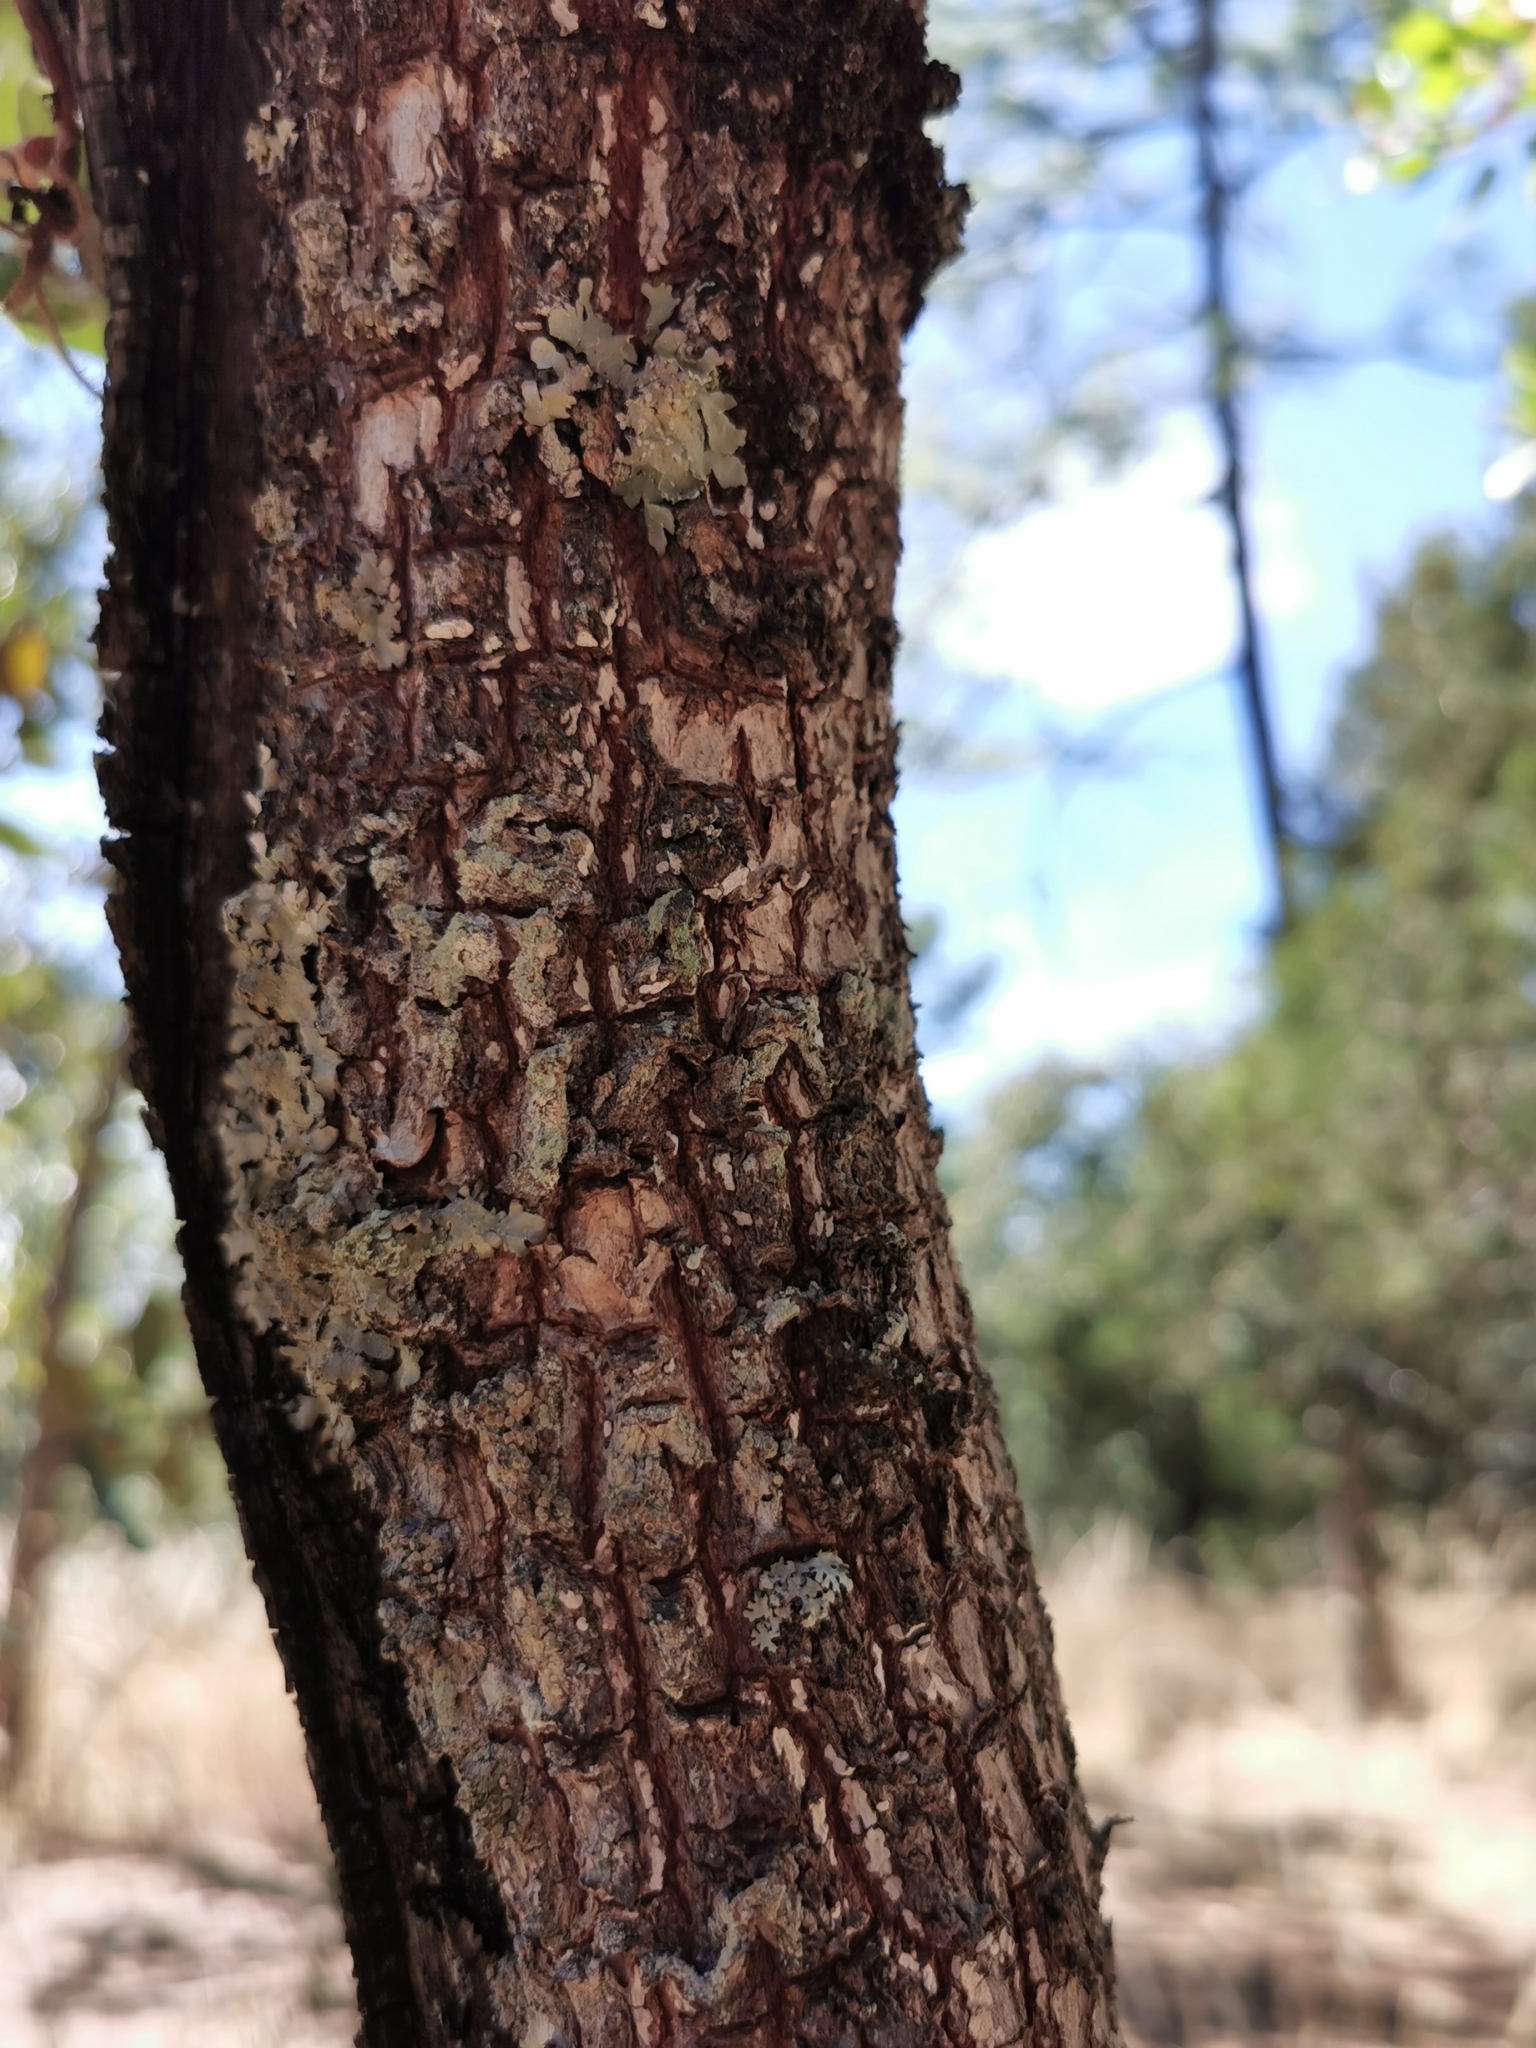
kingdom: Plantae
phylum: Tracheophyta
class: Magnoliopsida
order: Ericales
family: Ericaceae
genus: Arbutus
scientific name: Arbutus tessellata
